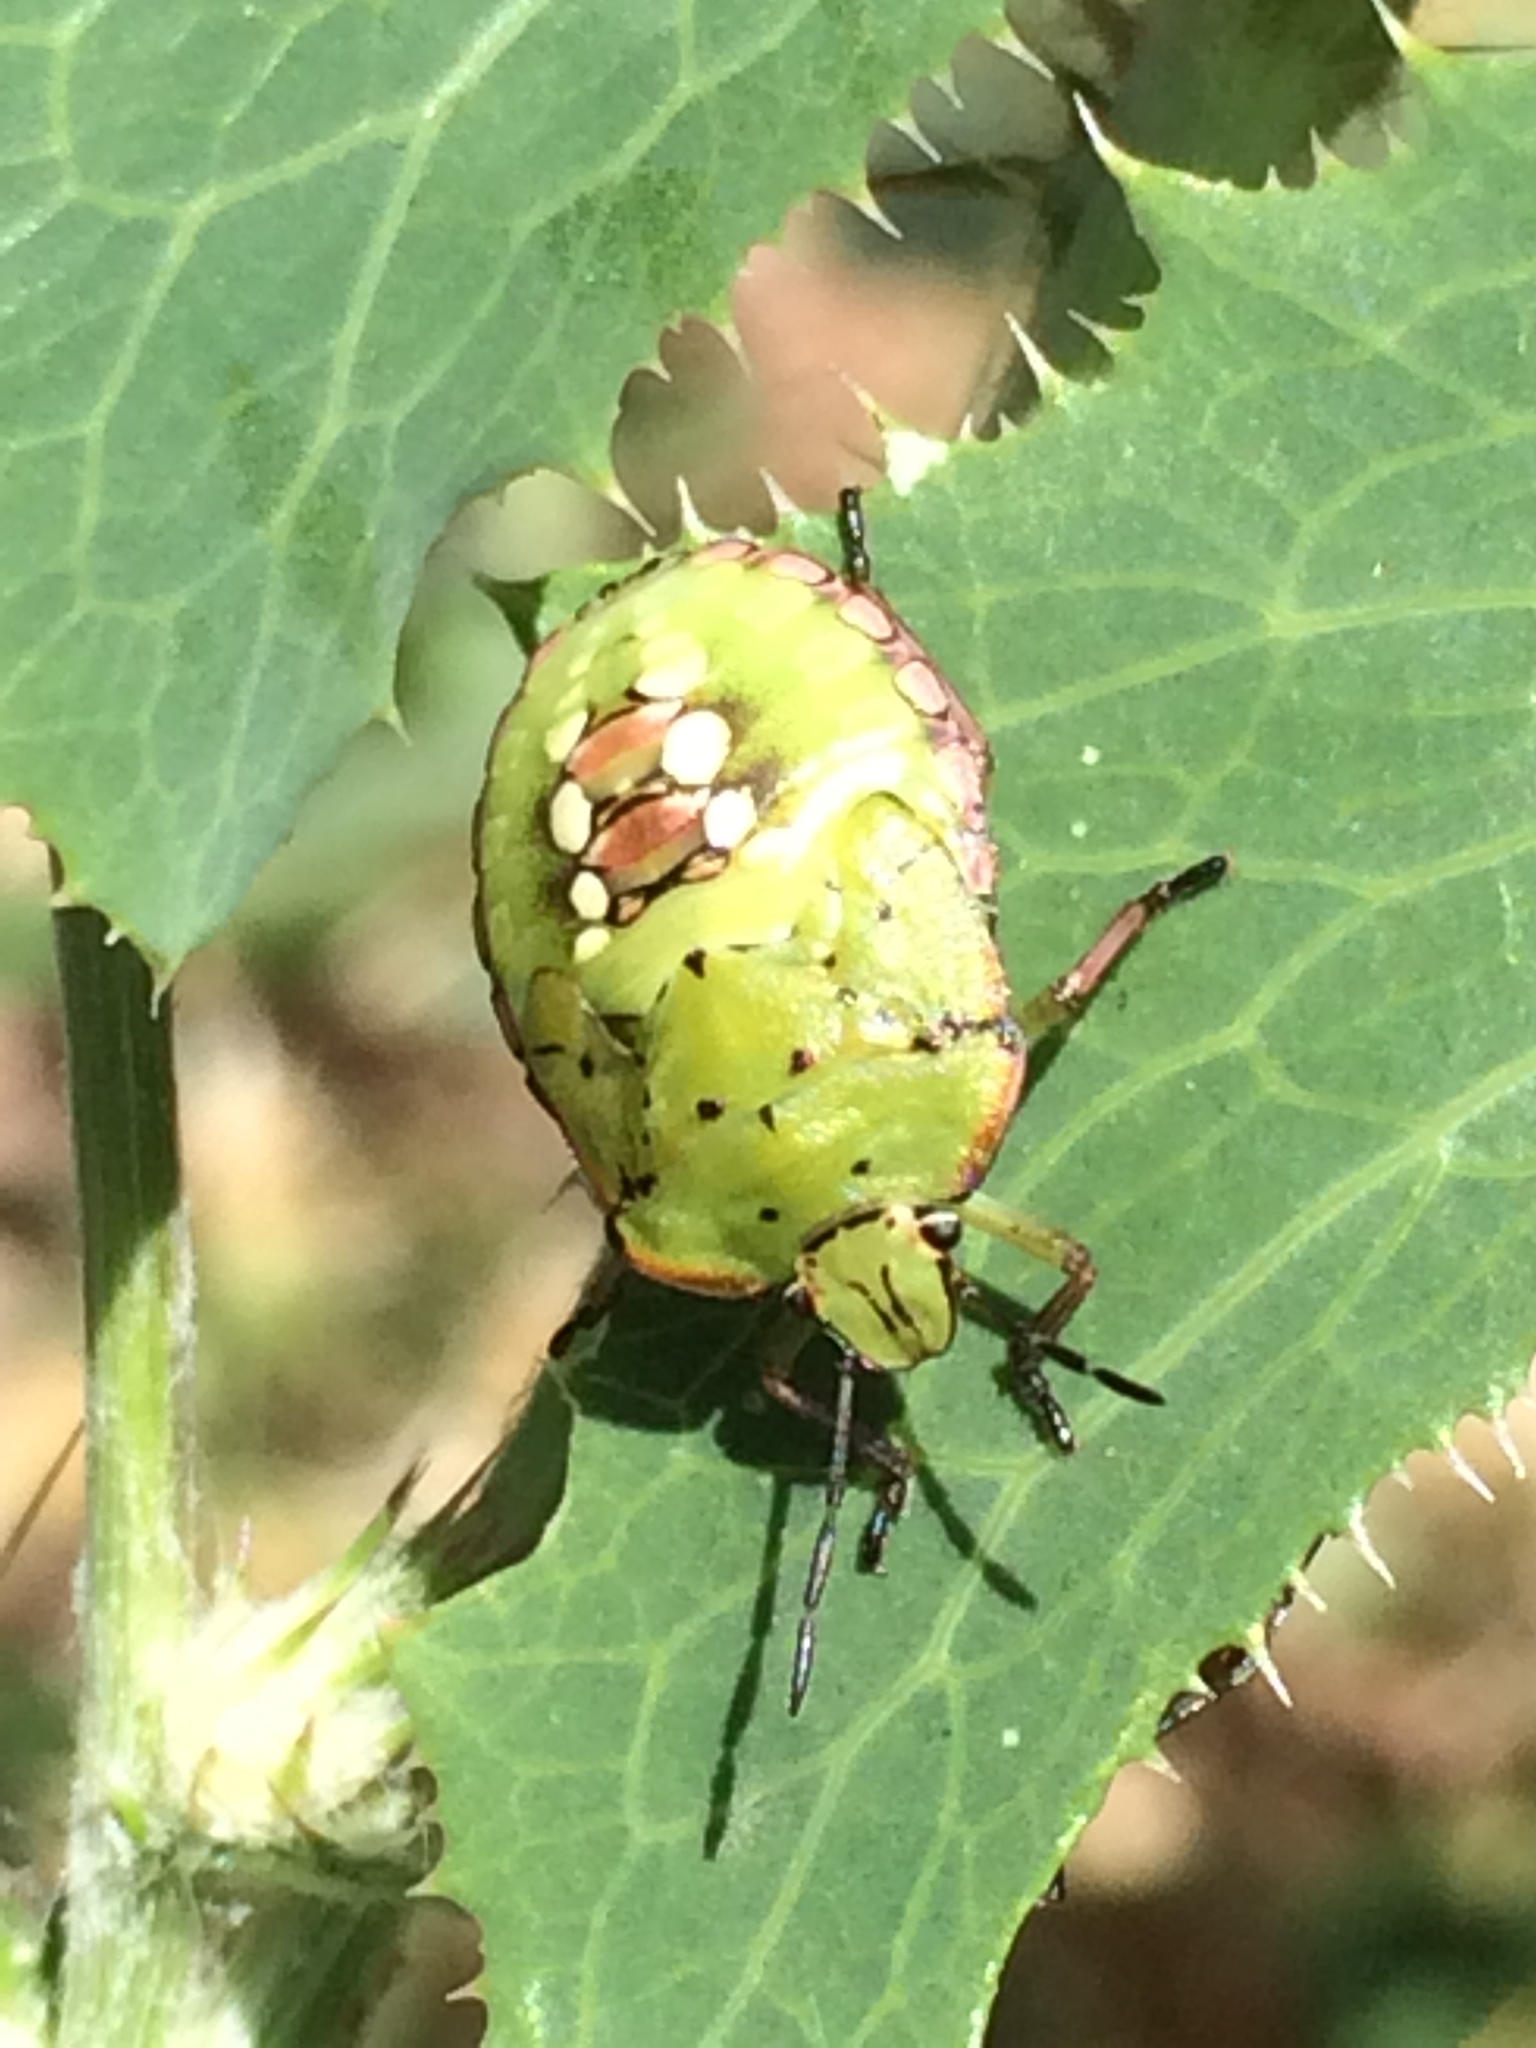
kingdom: Animalia
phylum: Arthropoda
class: Insecta
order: Hemiptera
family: Pentatomidae
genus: Nezara
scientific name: Nezara viridula
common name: Southern green stink bug
